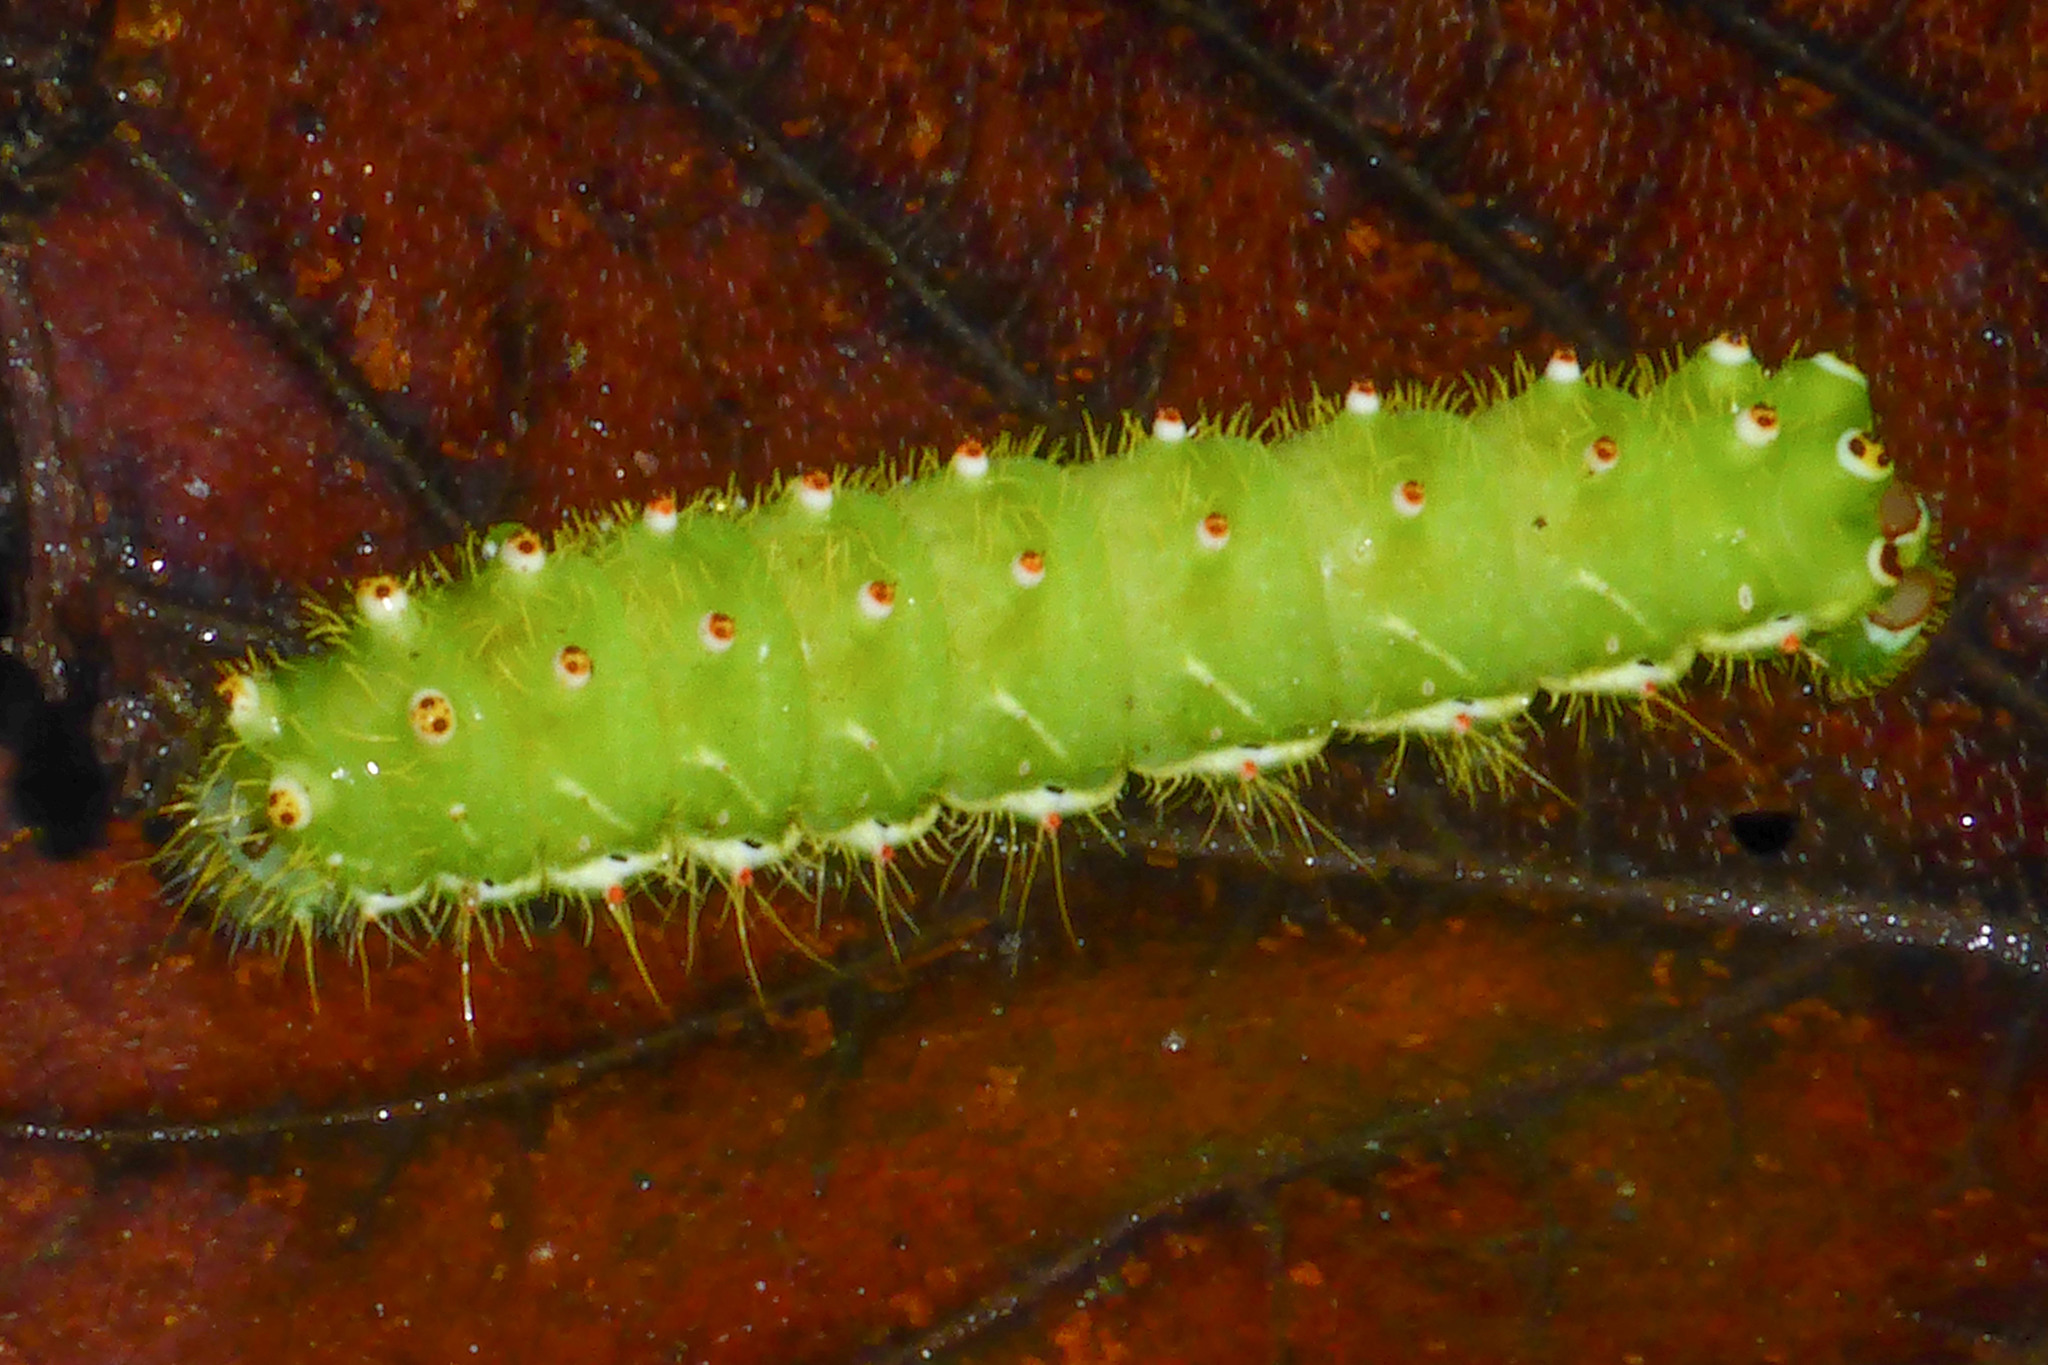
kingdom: Animalia
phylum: Arthropoda
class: Insecta
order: Lepidoptera
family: Saturniidae
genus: Saturnia
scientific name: Saturnia sinanna
